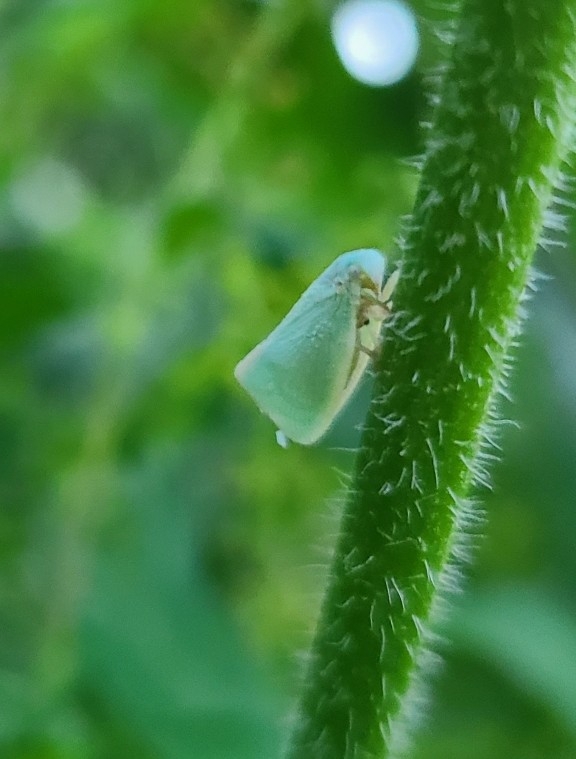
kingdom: Animalia
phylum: Arthropoda
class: Insecta
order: Hemiptera
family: Flatidae
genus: Flatormenis
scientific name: Flatormenis proxima
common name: Northern flatid planthopper
